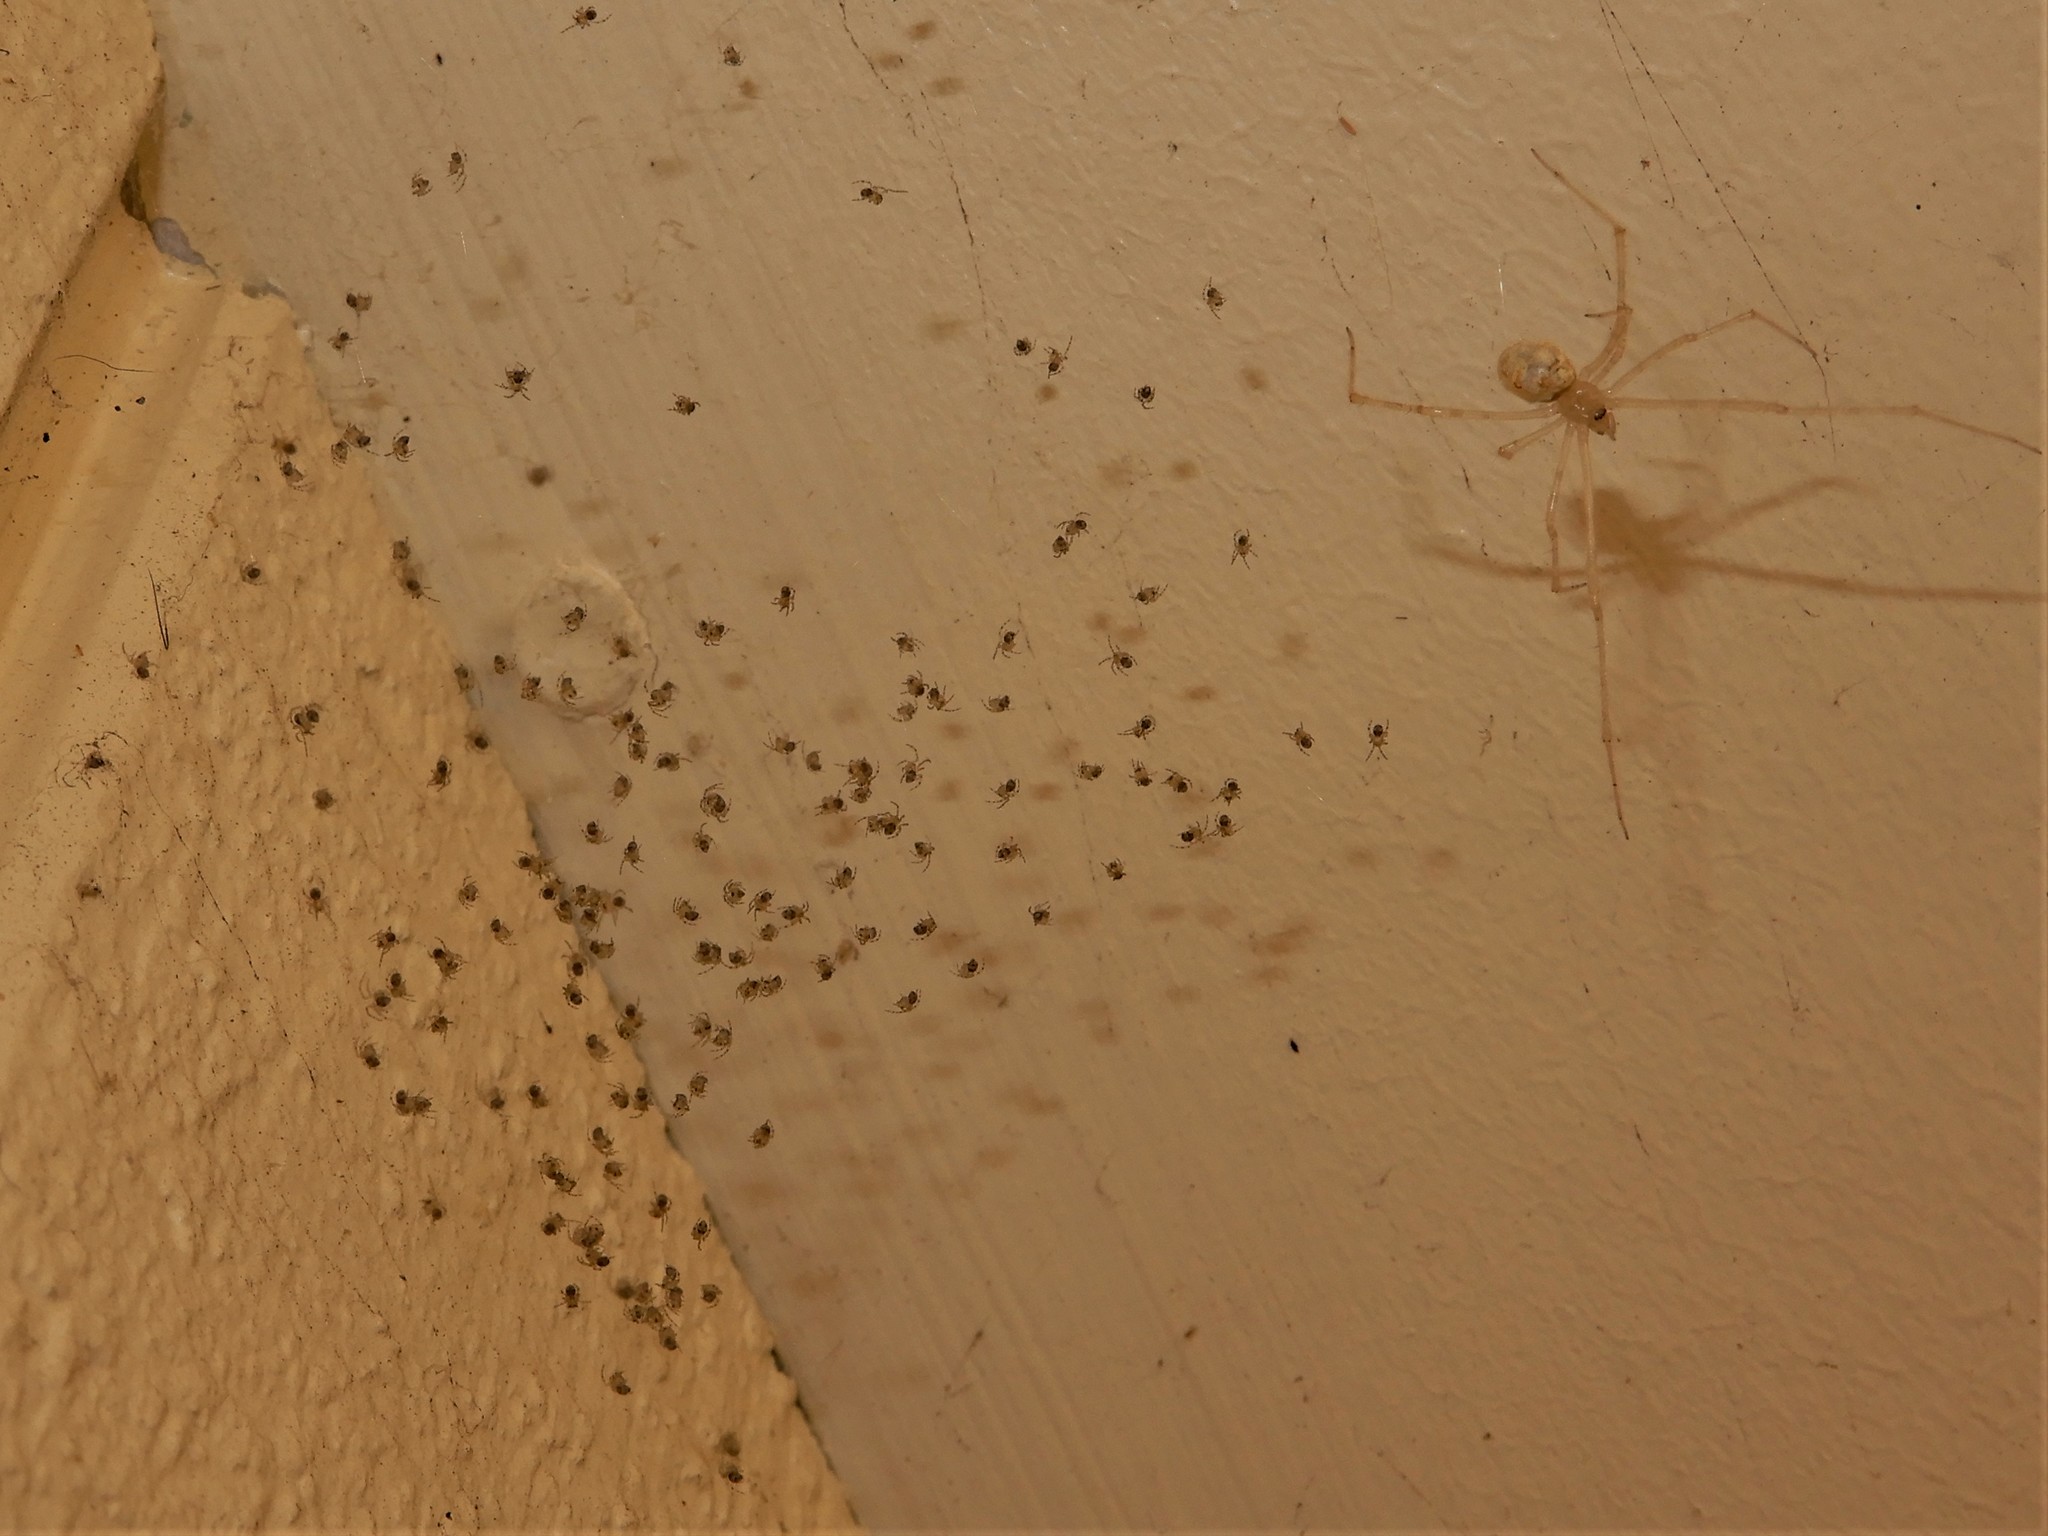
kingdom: Animalia
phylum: Arthropoda
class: Arachnida
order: Araneae
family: Theridiidae
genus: Cryptachaea
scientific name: Cryptachaea gigantipes
